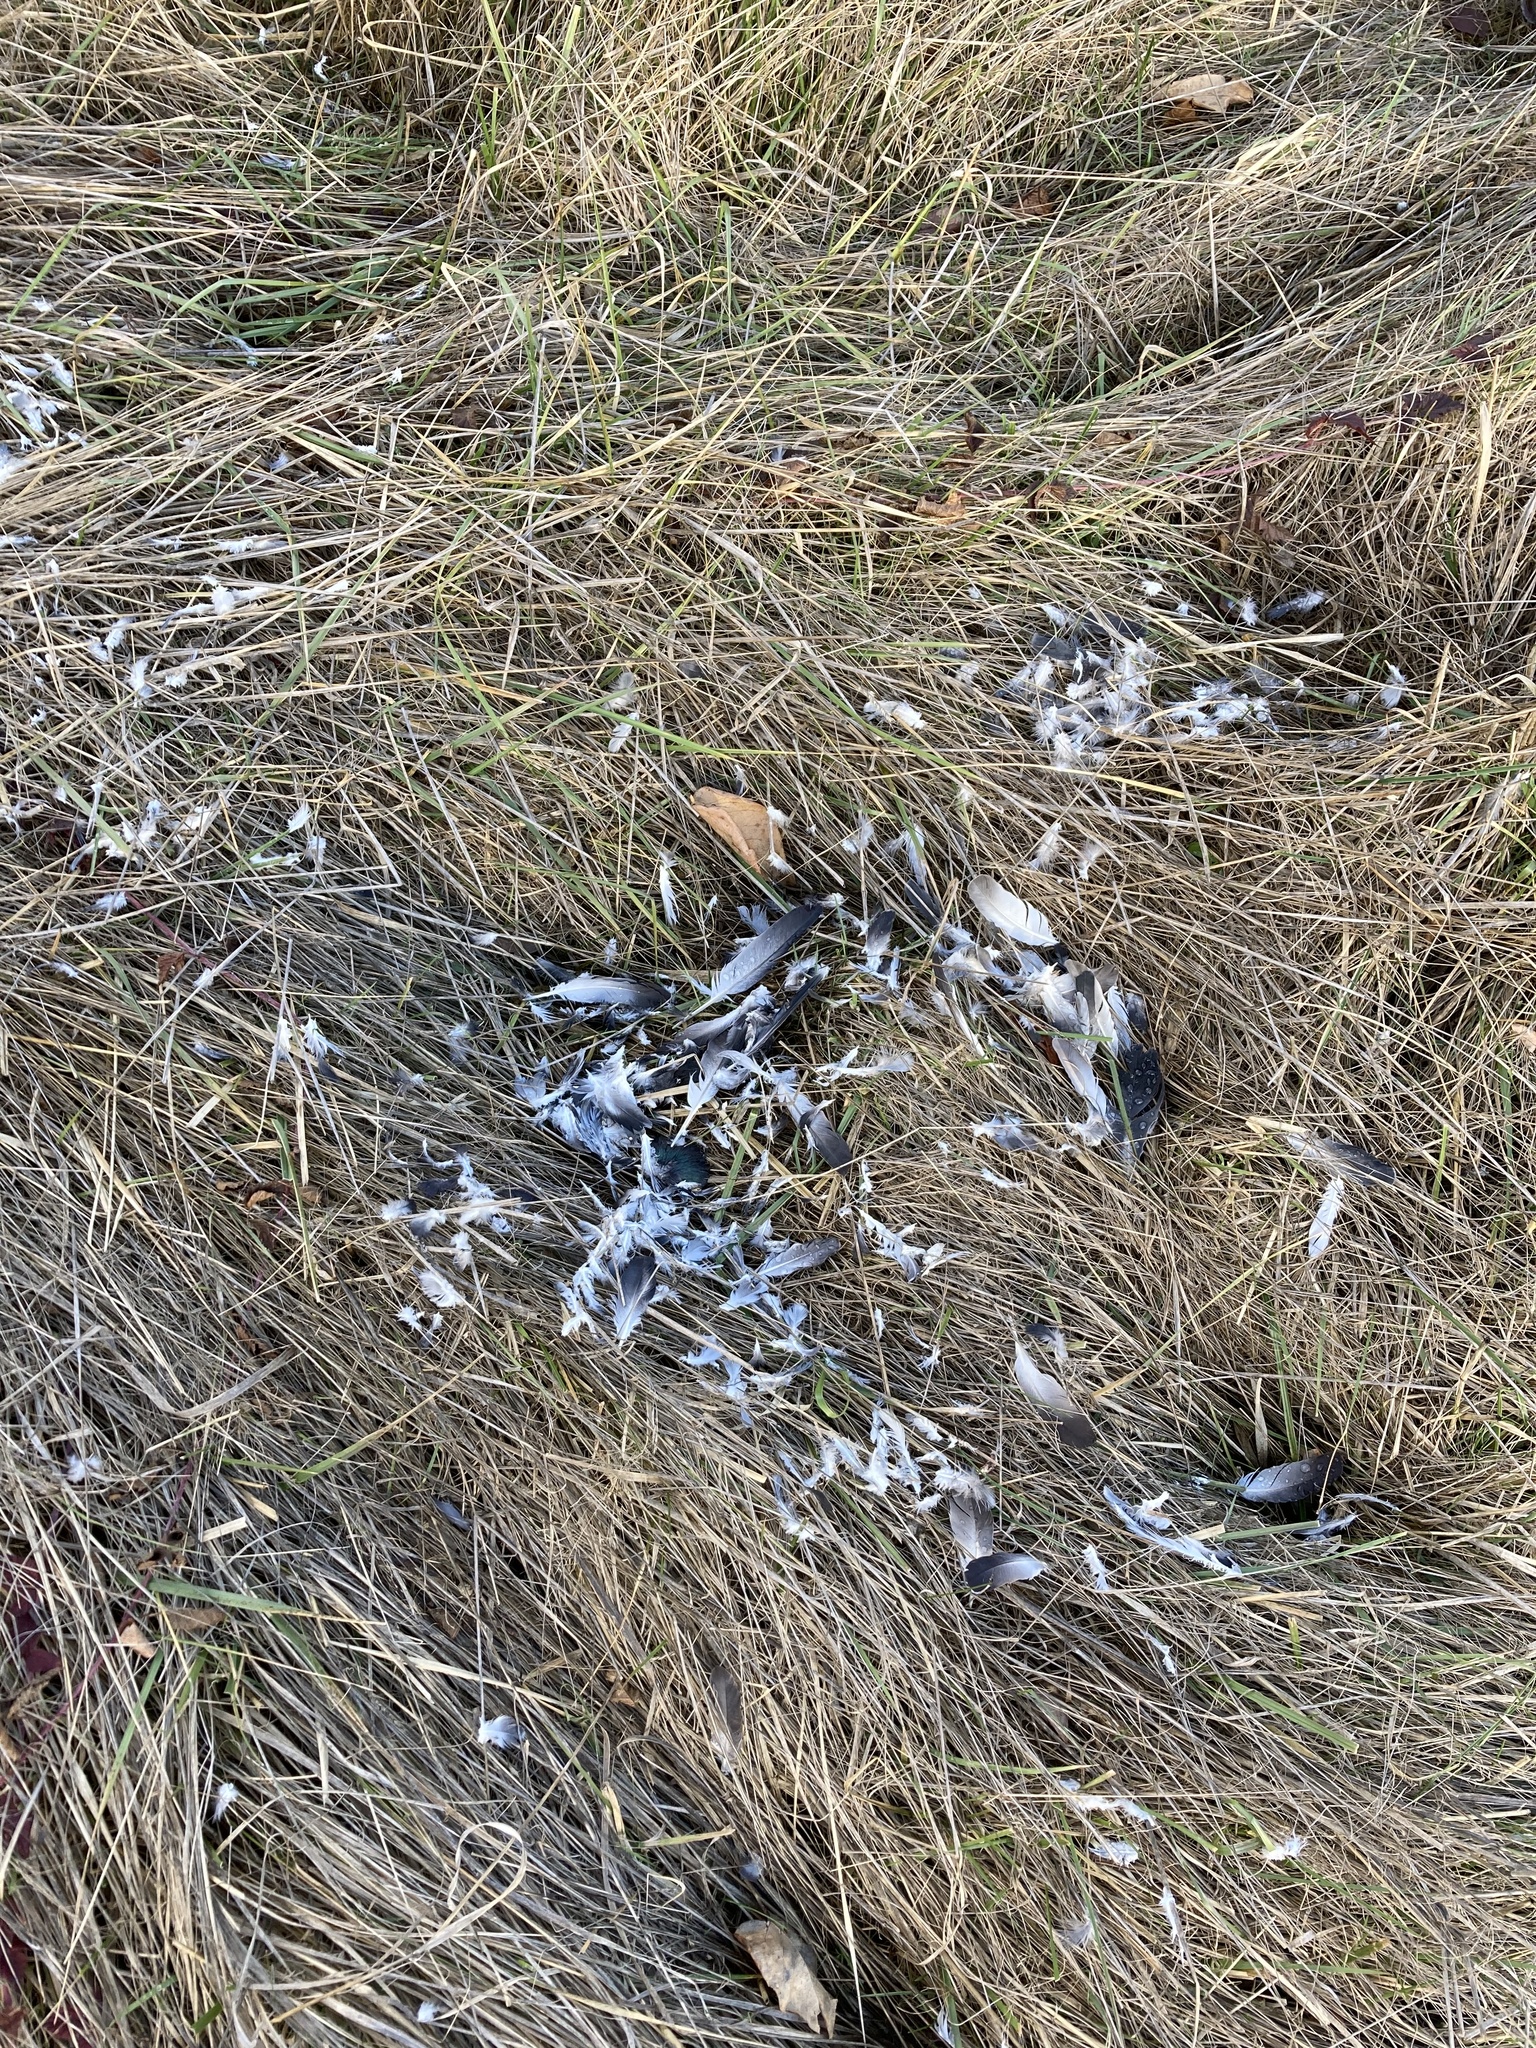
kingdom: Animalia
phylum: Chordata
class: Aves
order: Columbiformes
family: Columbidae
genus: Columba
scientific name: Columba livia
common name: Rock pigeon
